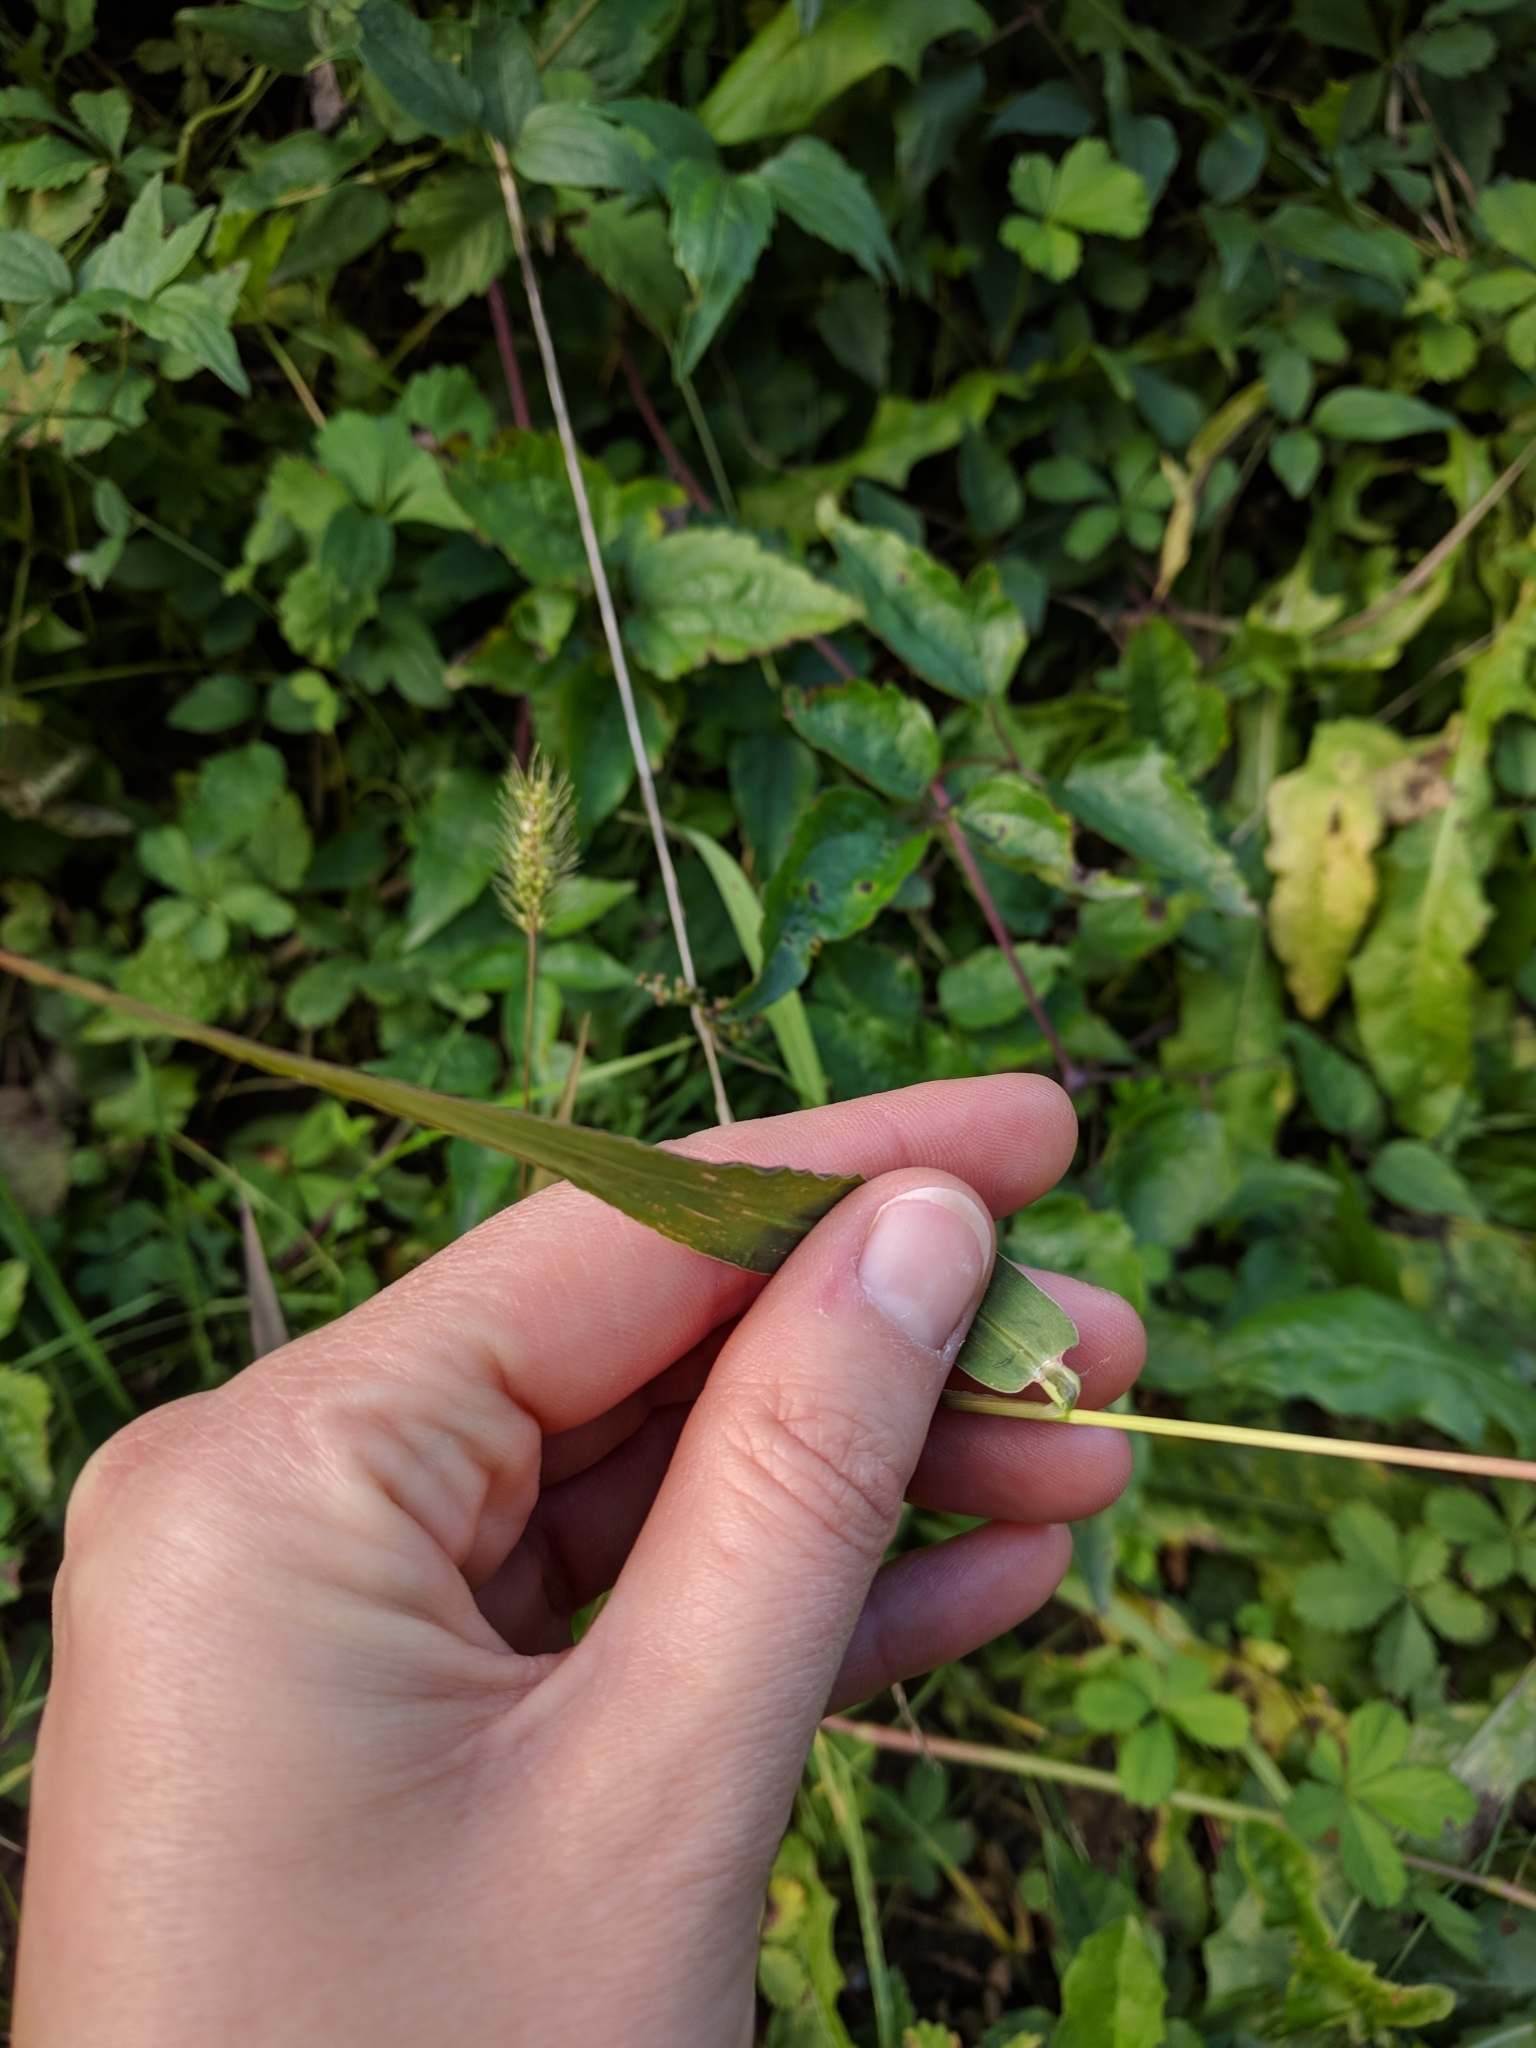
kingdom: Plantae
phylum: Tracheophyta
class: Liliopsida
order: Poales
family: Poaceae
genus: Setaria
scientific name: Setaria viridis
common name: Green bristlegrass
